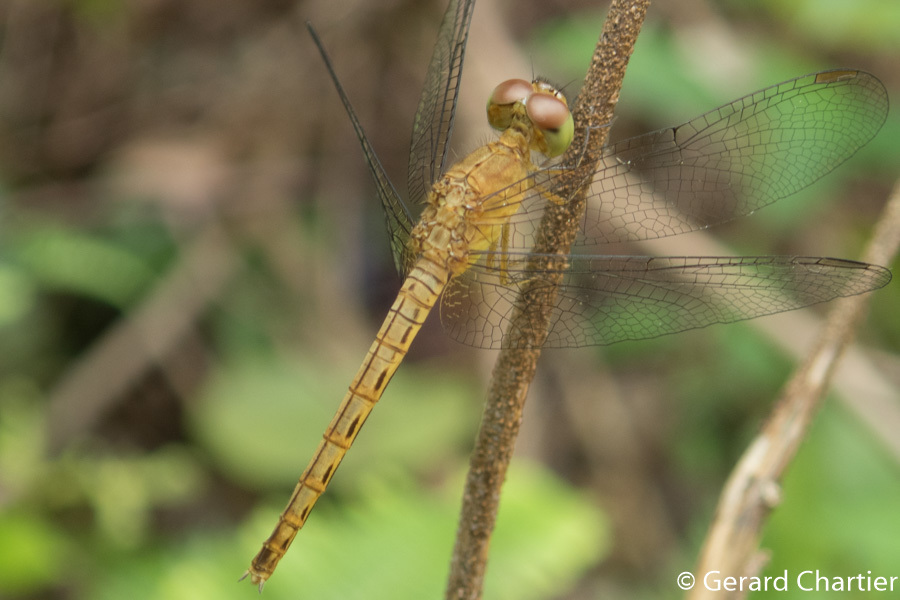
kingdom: Animalia
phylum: Arthropoda
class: Insecta
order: Odonata
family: Libellulidae
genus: Neurothemis
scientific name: Neurothemis fluctuans
